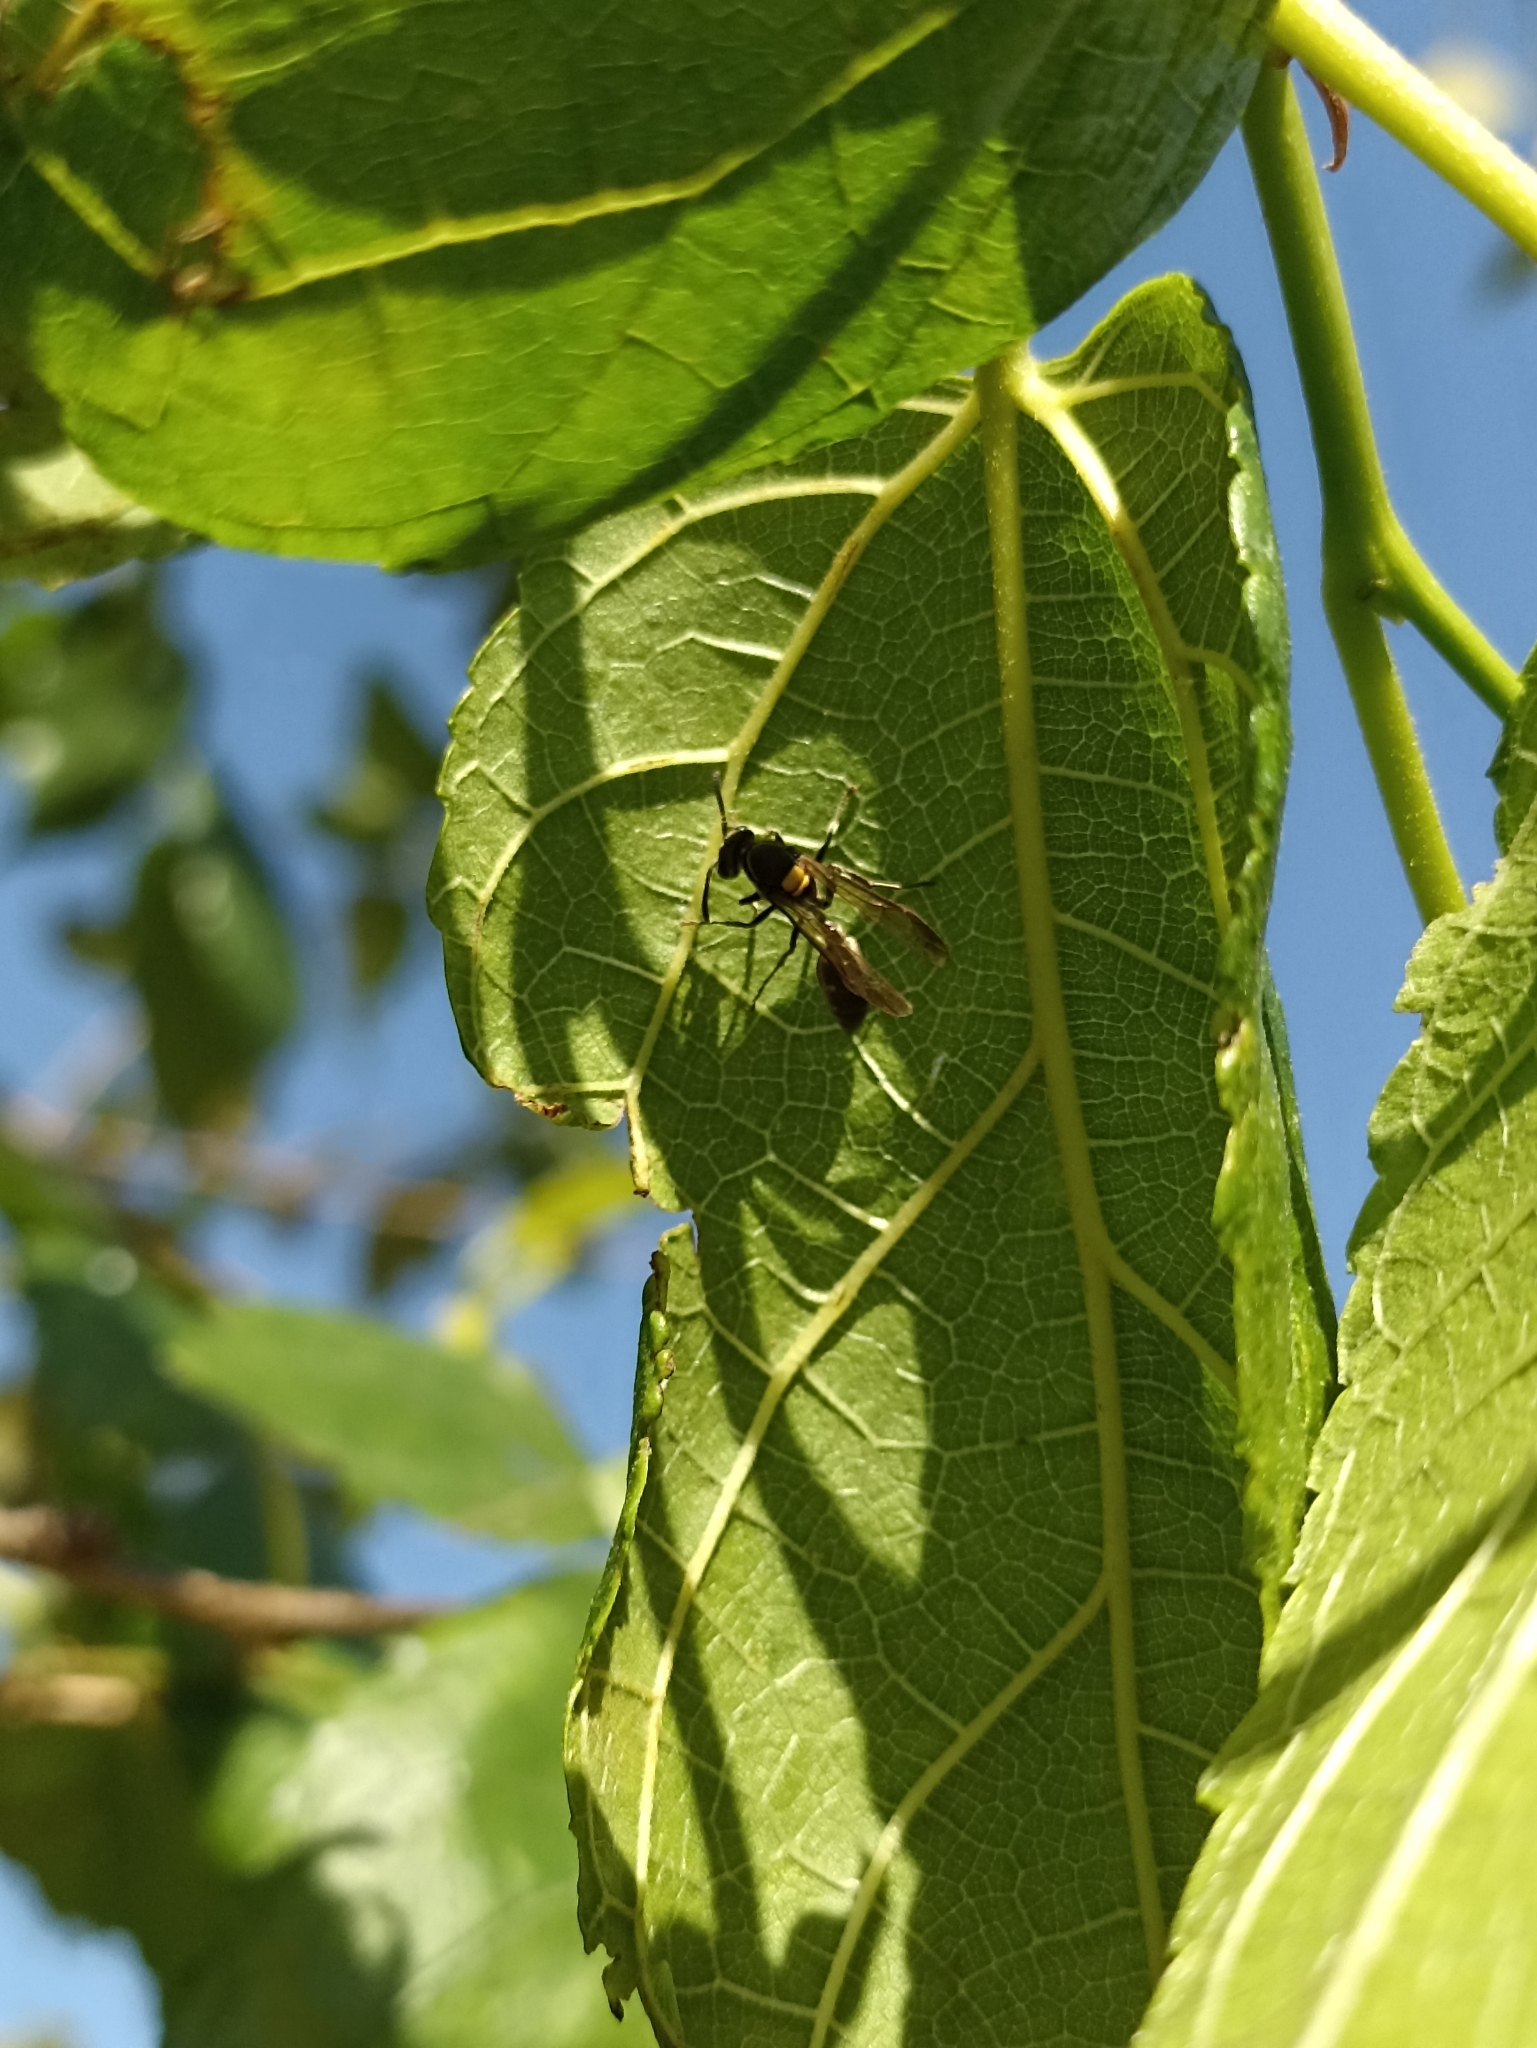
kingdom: Animalia
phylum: Arthropoda
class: Insecta
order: Hymenoptera
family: Eumenidae
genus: Polybia
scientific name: Polybia paulista
